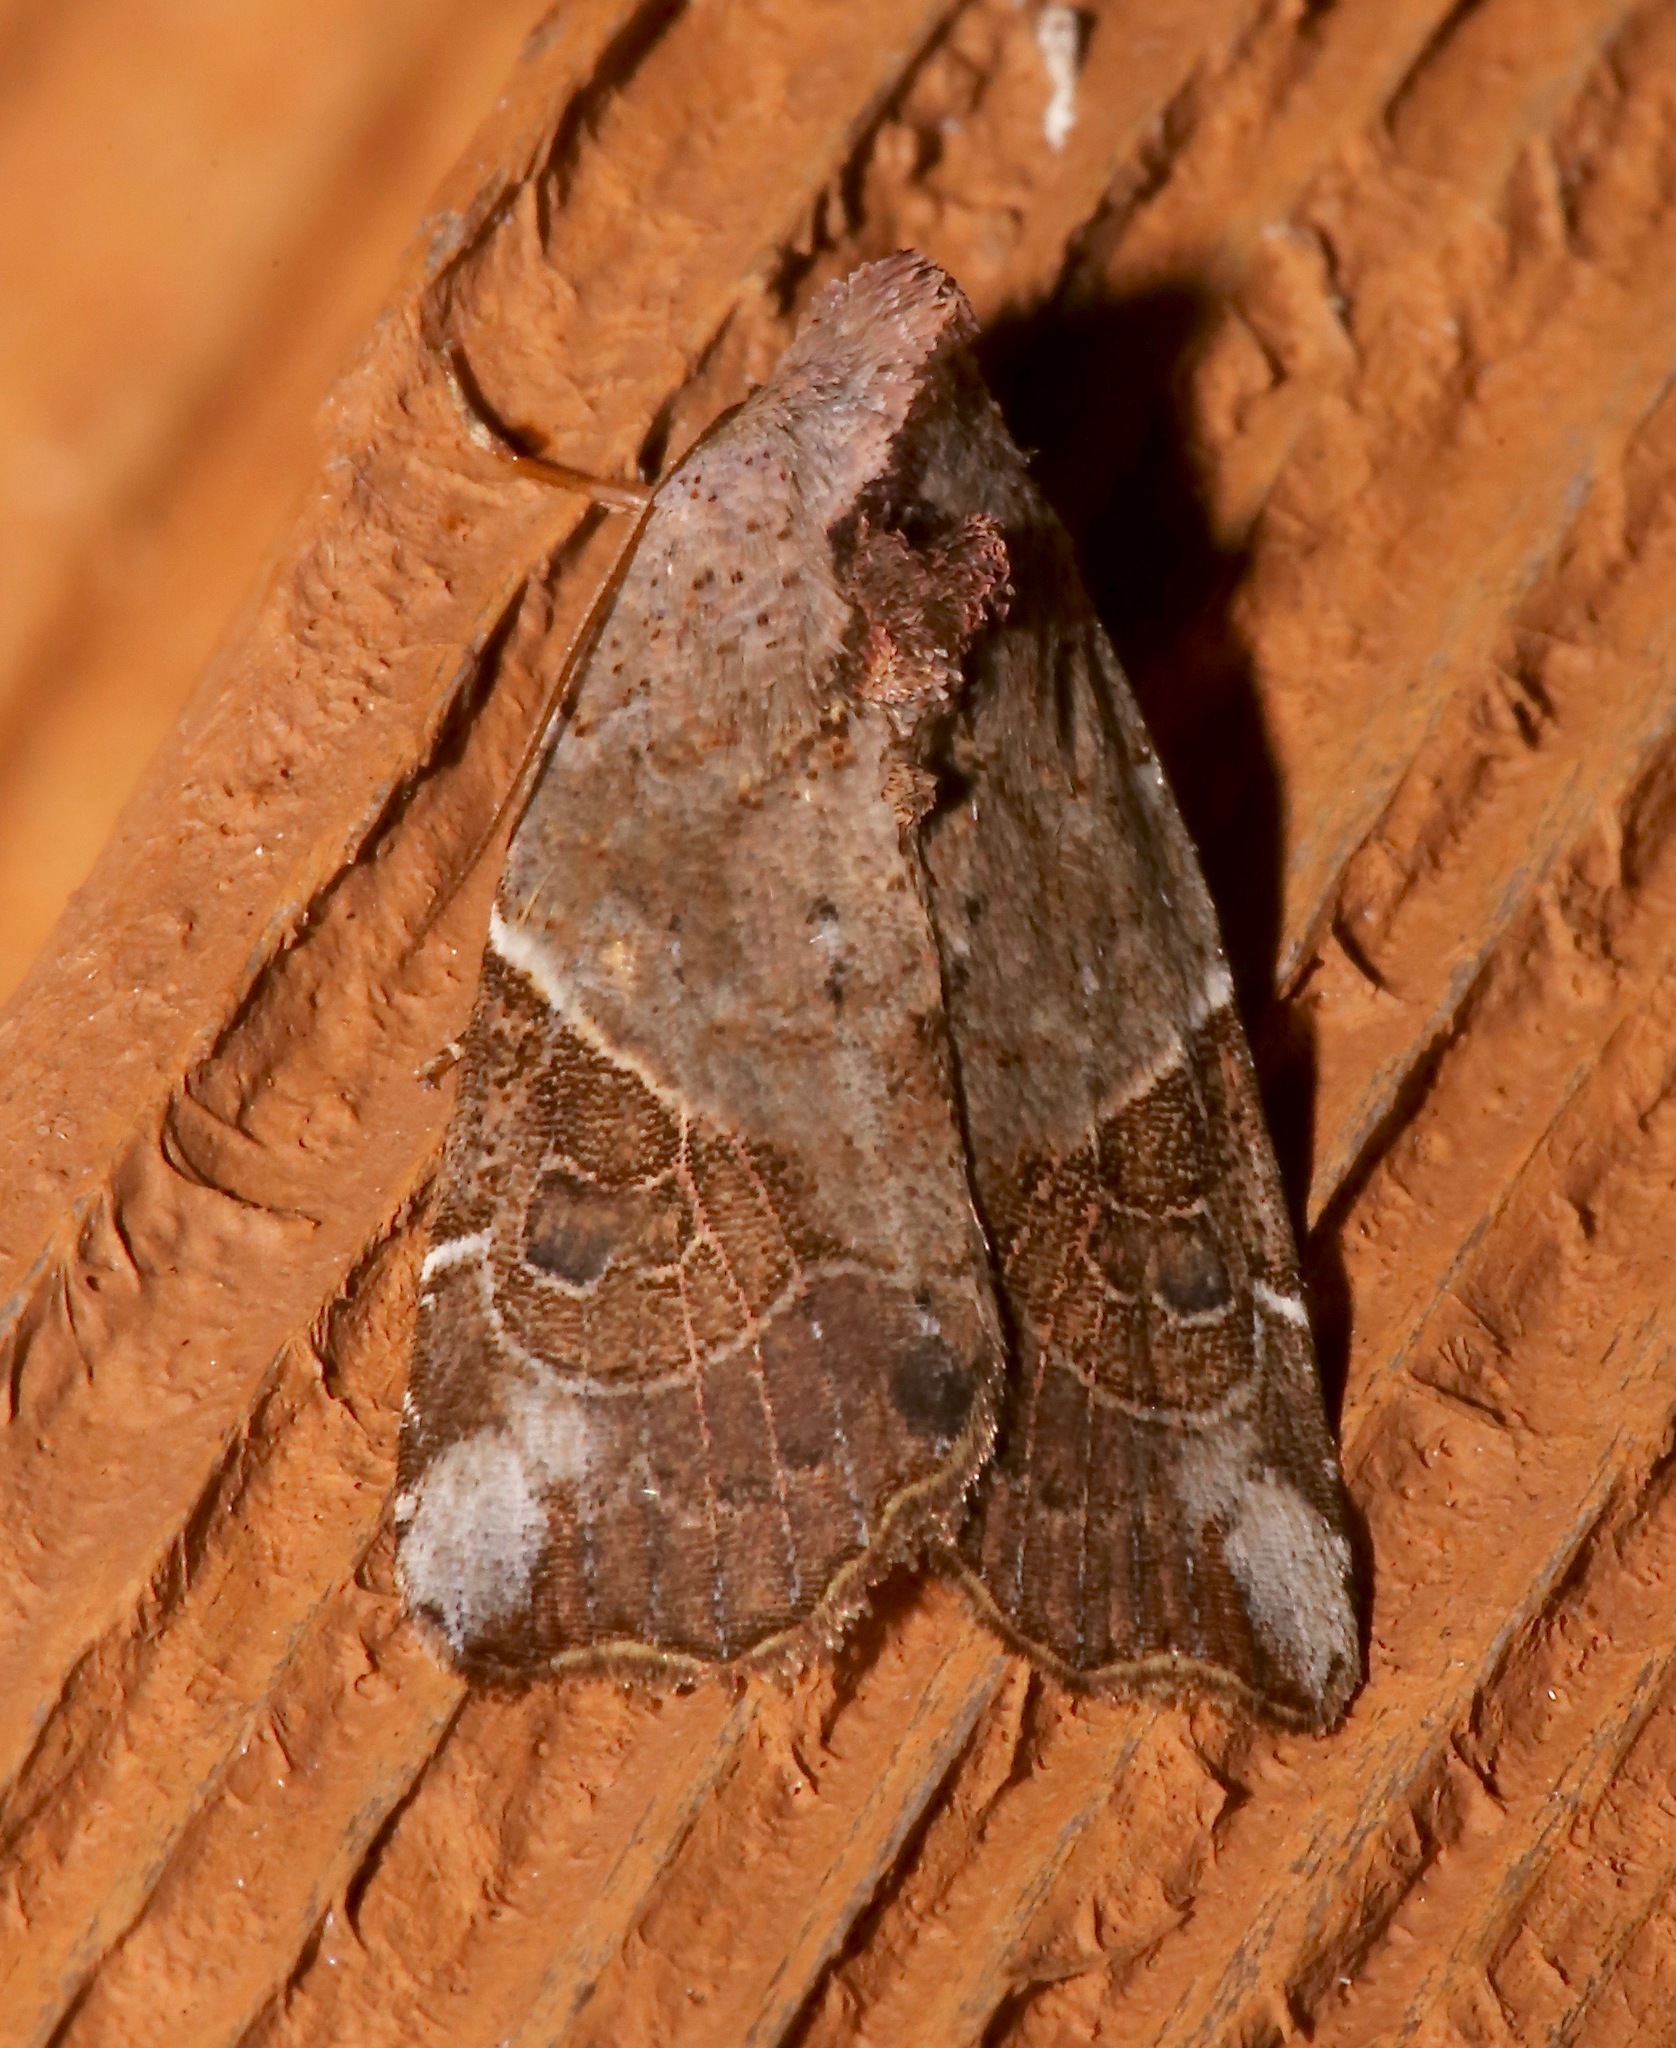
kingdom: Animalia
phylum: Arthropoda
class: Insecta
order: Lepidoptera
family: Noctuidae
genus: Gonodes
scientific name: Gonodes liquida
